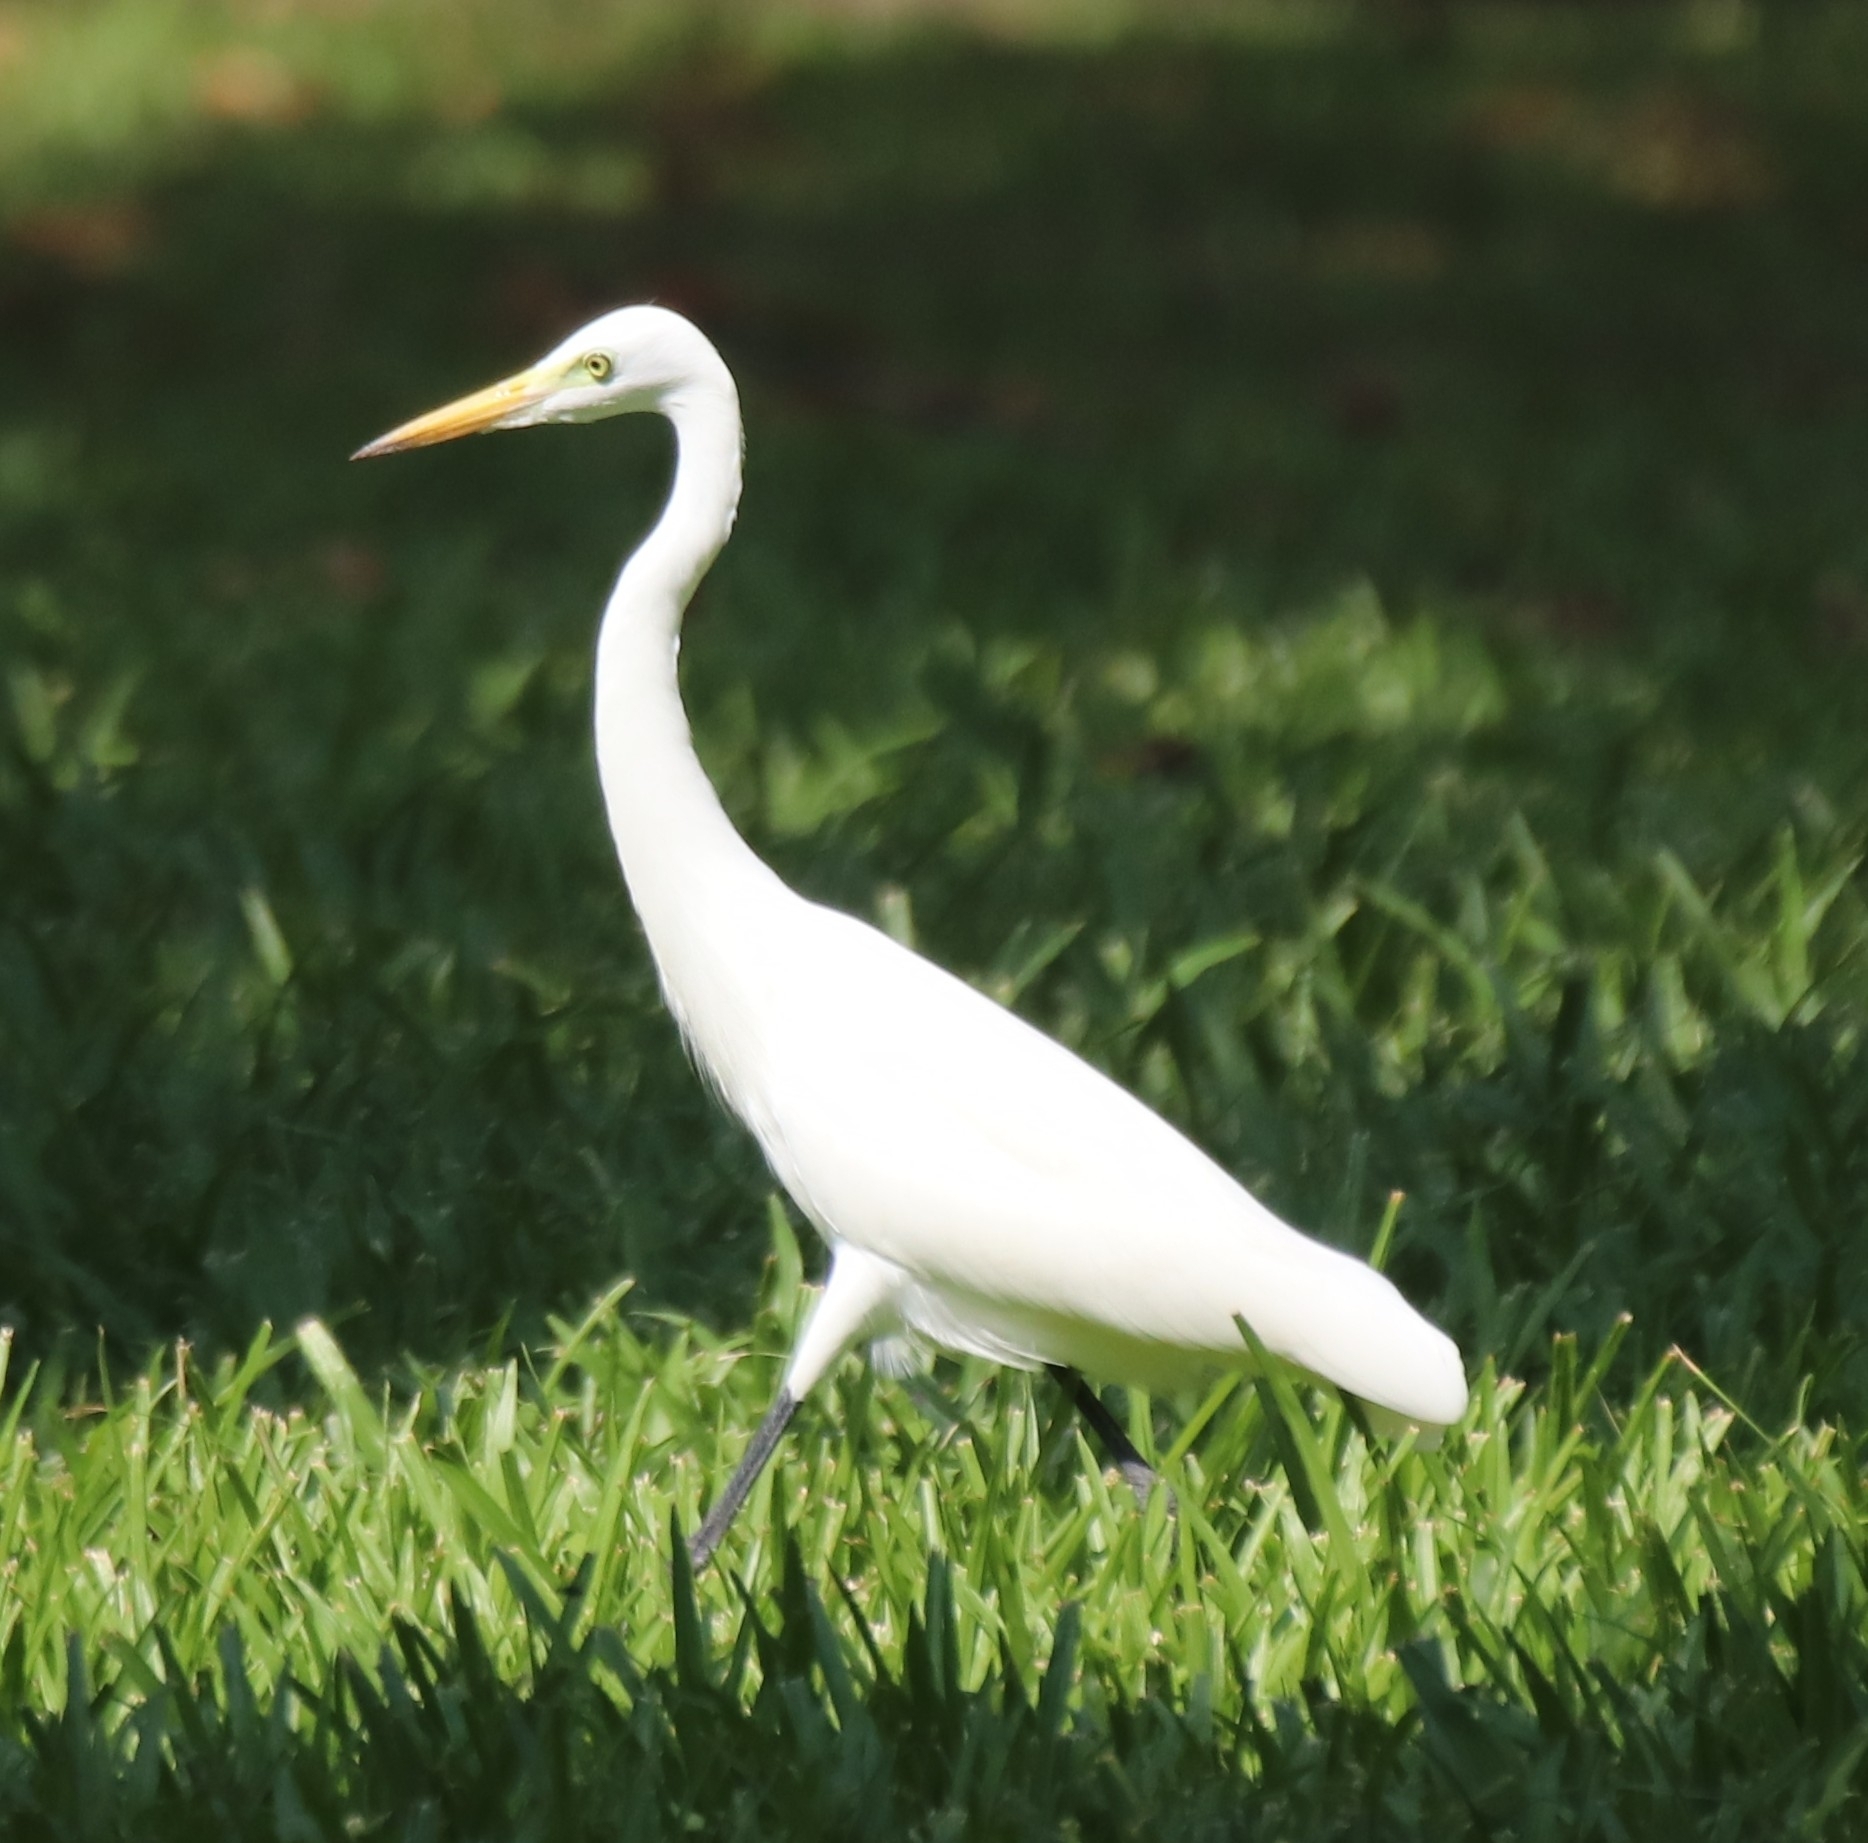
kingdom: Animalia
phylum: Chordata
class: Aves
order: Pelecaniformes
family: Ardeidae
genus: Egretta
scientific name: Egretta intermedia
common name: Intermediate egret
